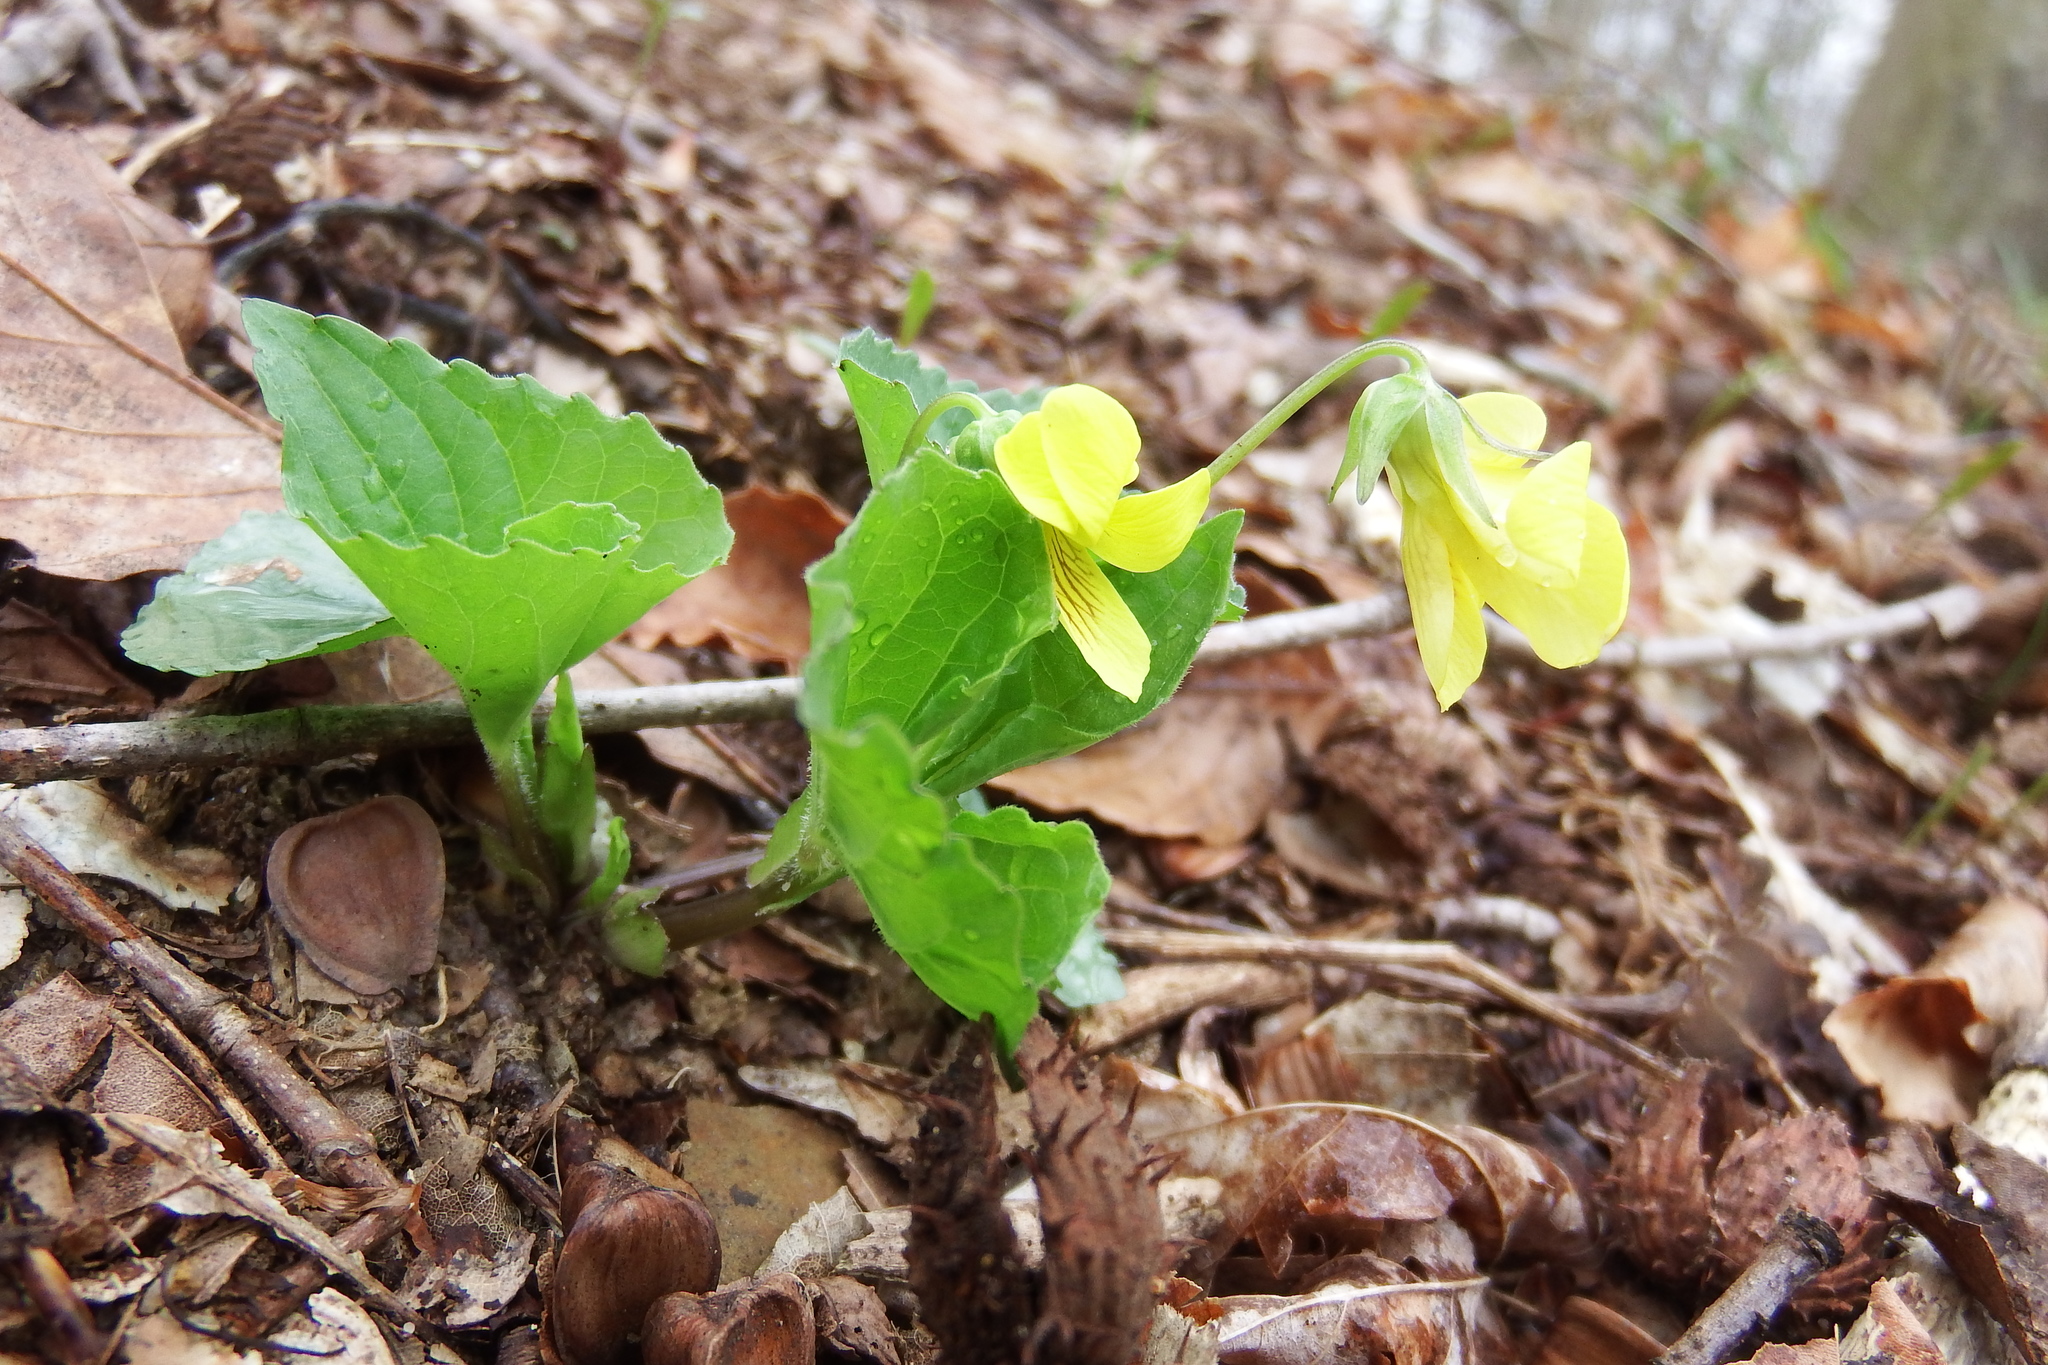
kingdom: Plantae
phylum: Tracheophyta
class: Magnoliopsida
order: Malpighiales
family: Violaceae
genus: Viola
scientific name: Viola eriocarpa
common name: Smooth yellow violet
